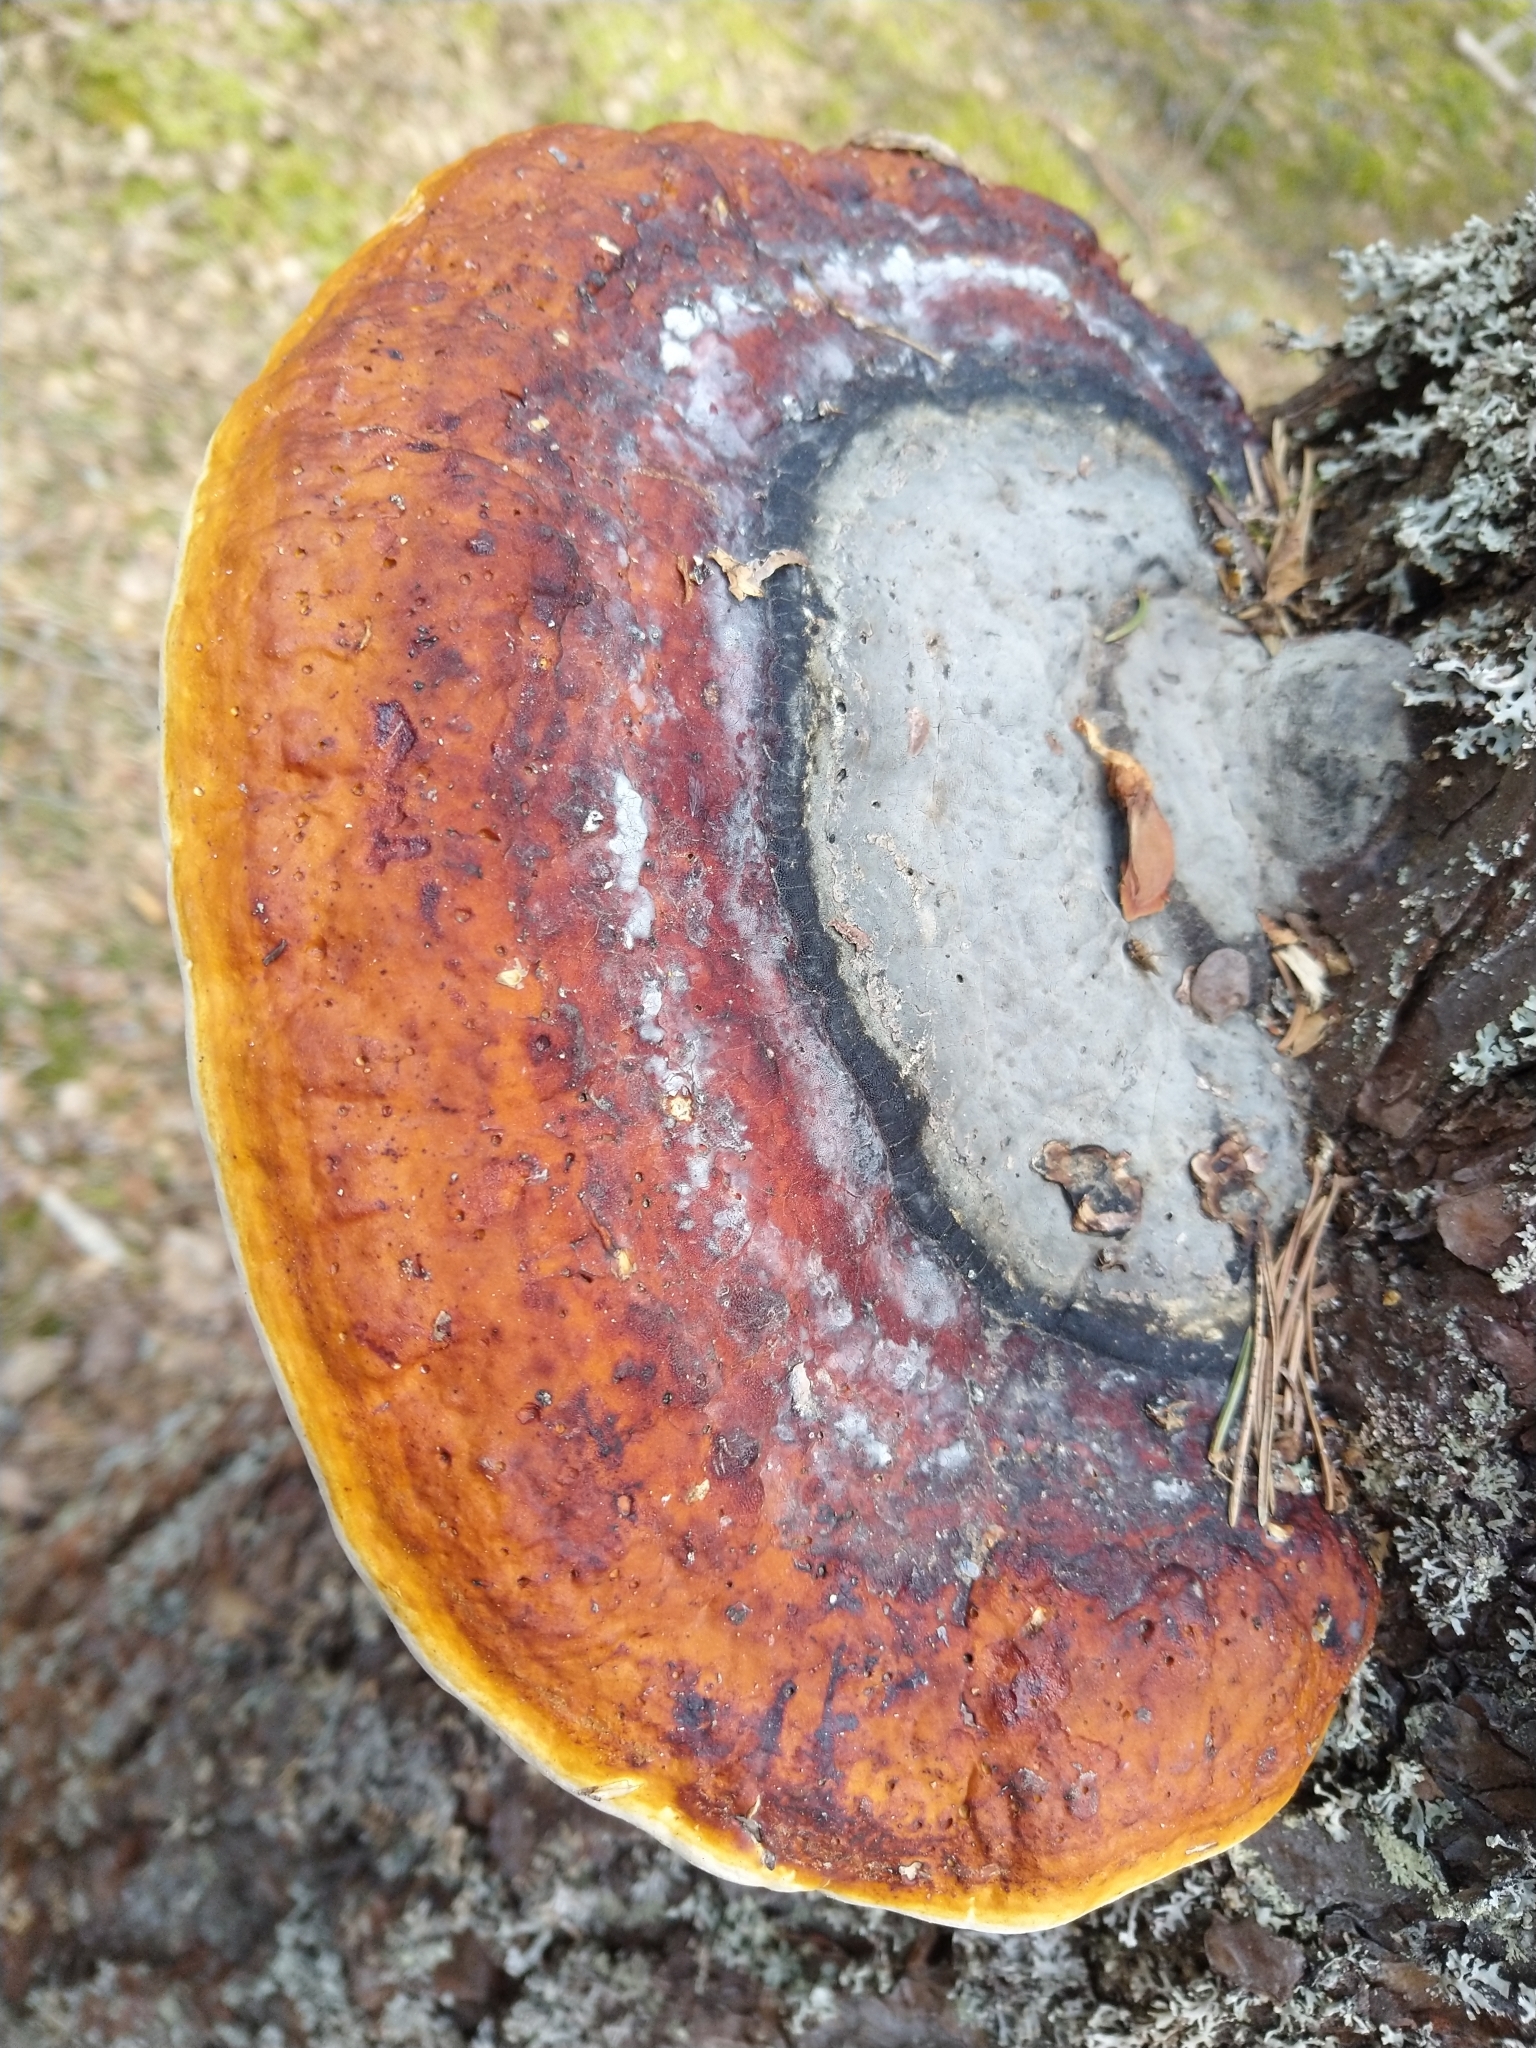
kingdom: Fungi
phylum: Basidiomycota
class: Agaricomycetes
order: Polyporales
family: Fomitopsidaceae
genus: Fomitopsis
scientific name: Fomitopsis pinicola
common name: Red-belted bracket
